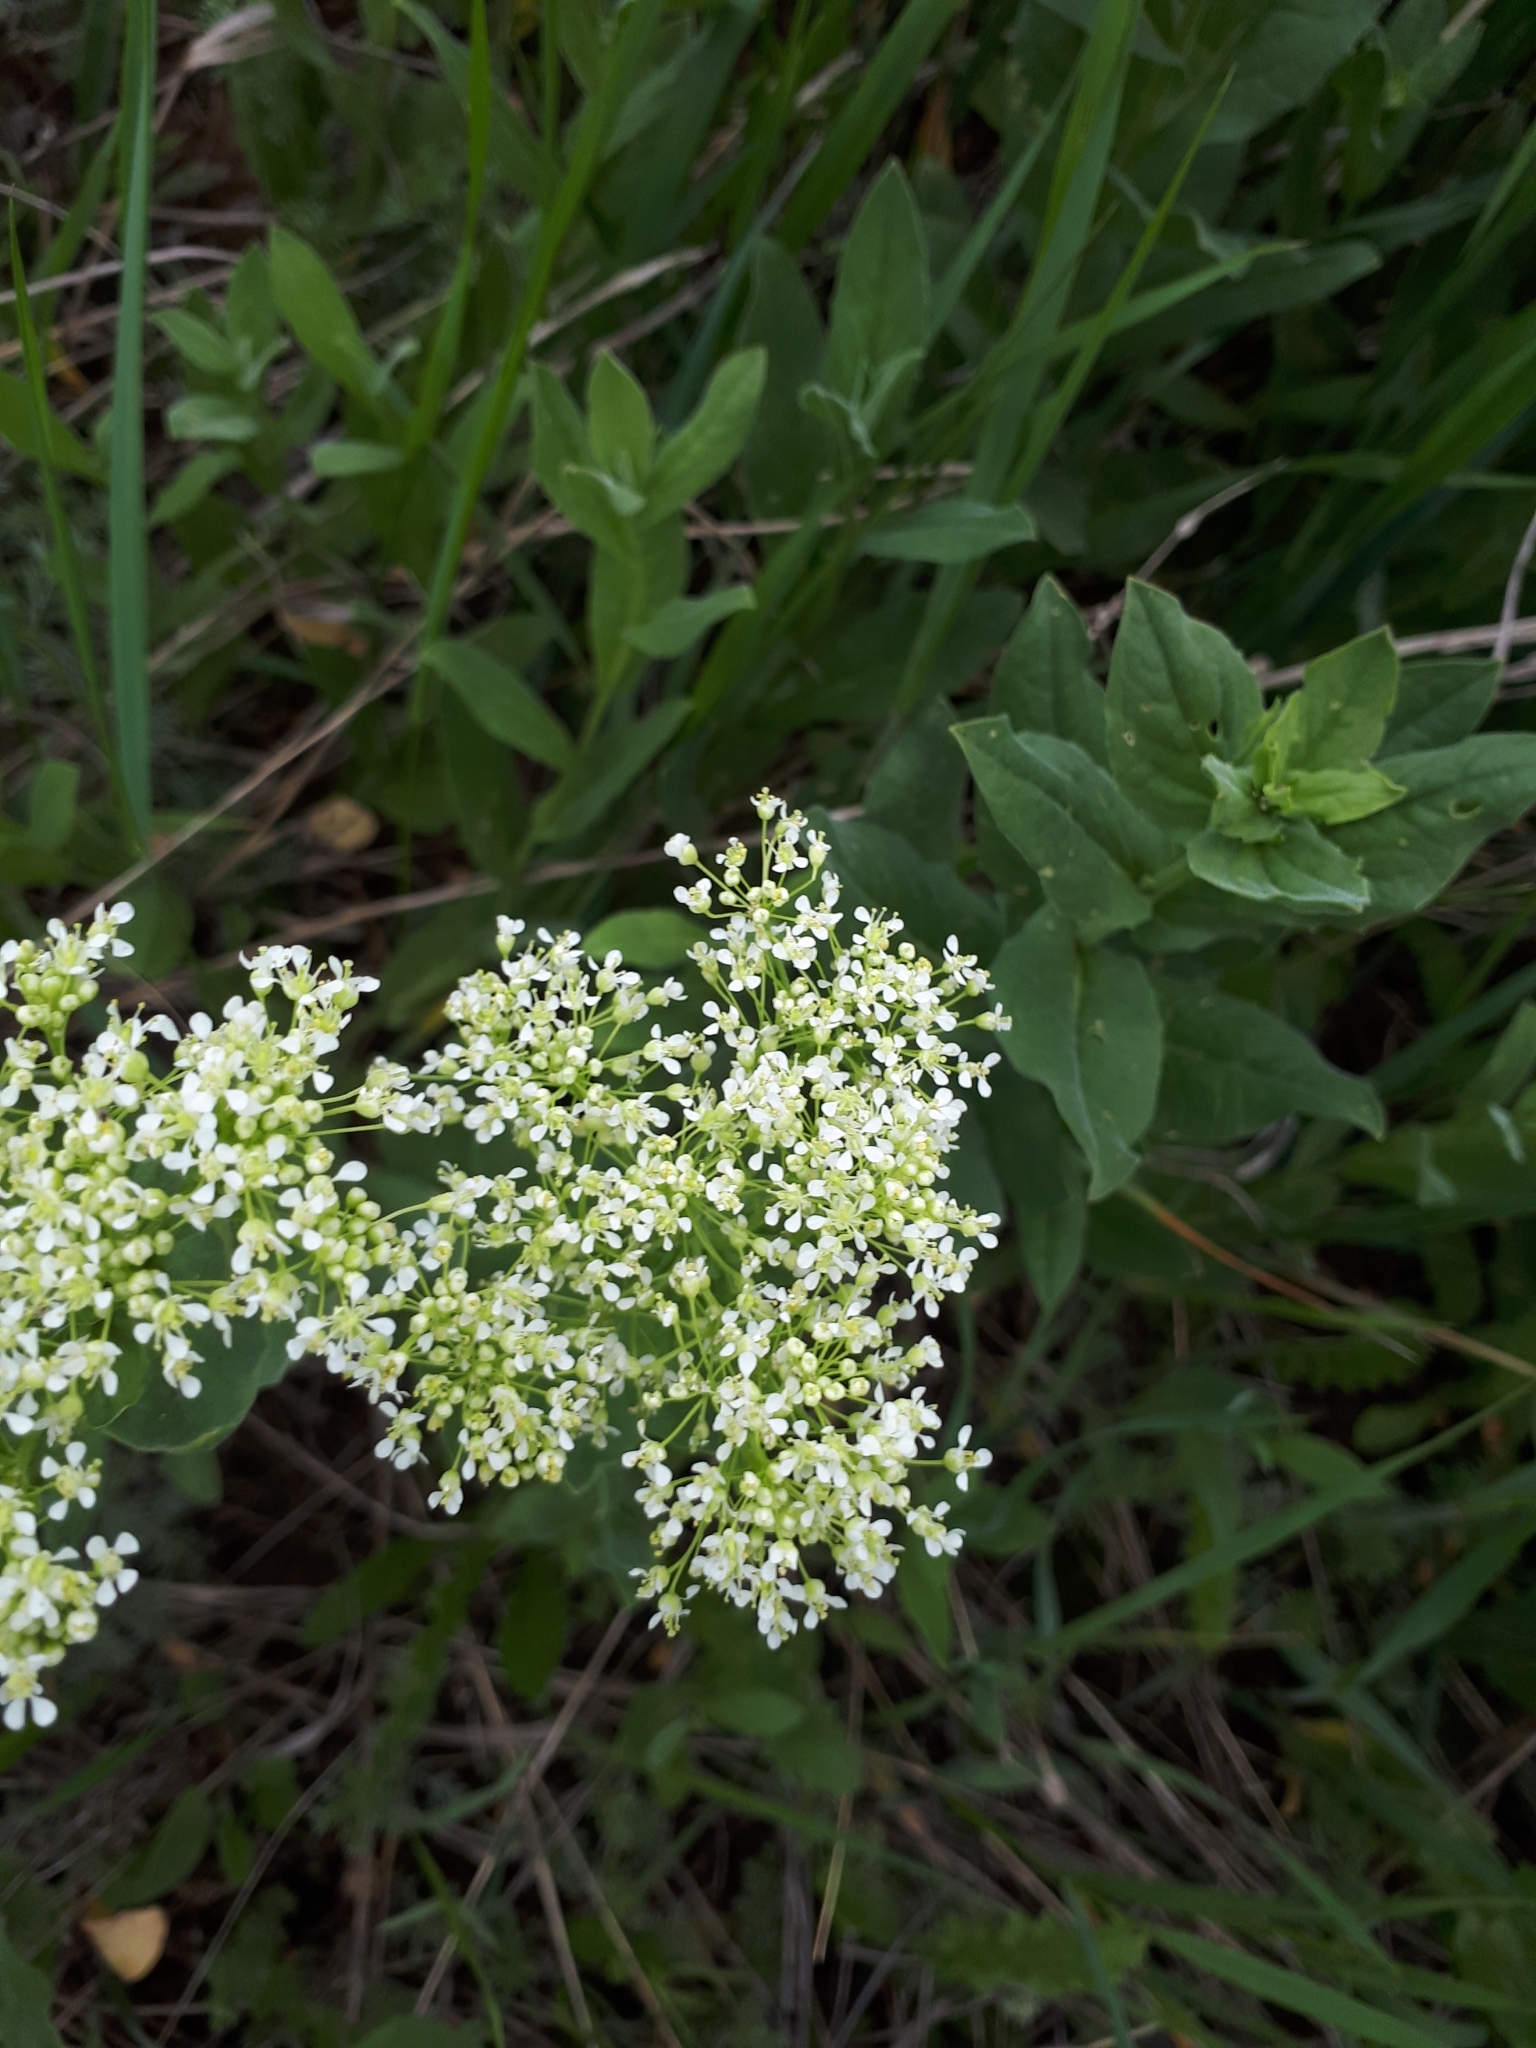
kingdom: Plantae
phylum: Tracheophyta
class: Magnoliopsida
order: Brassicales
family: Brassicaceae
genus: Lepidium
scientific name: Lepidium draba
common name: Hoary cress
